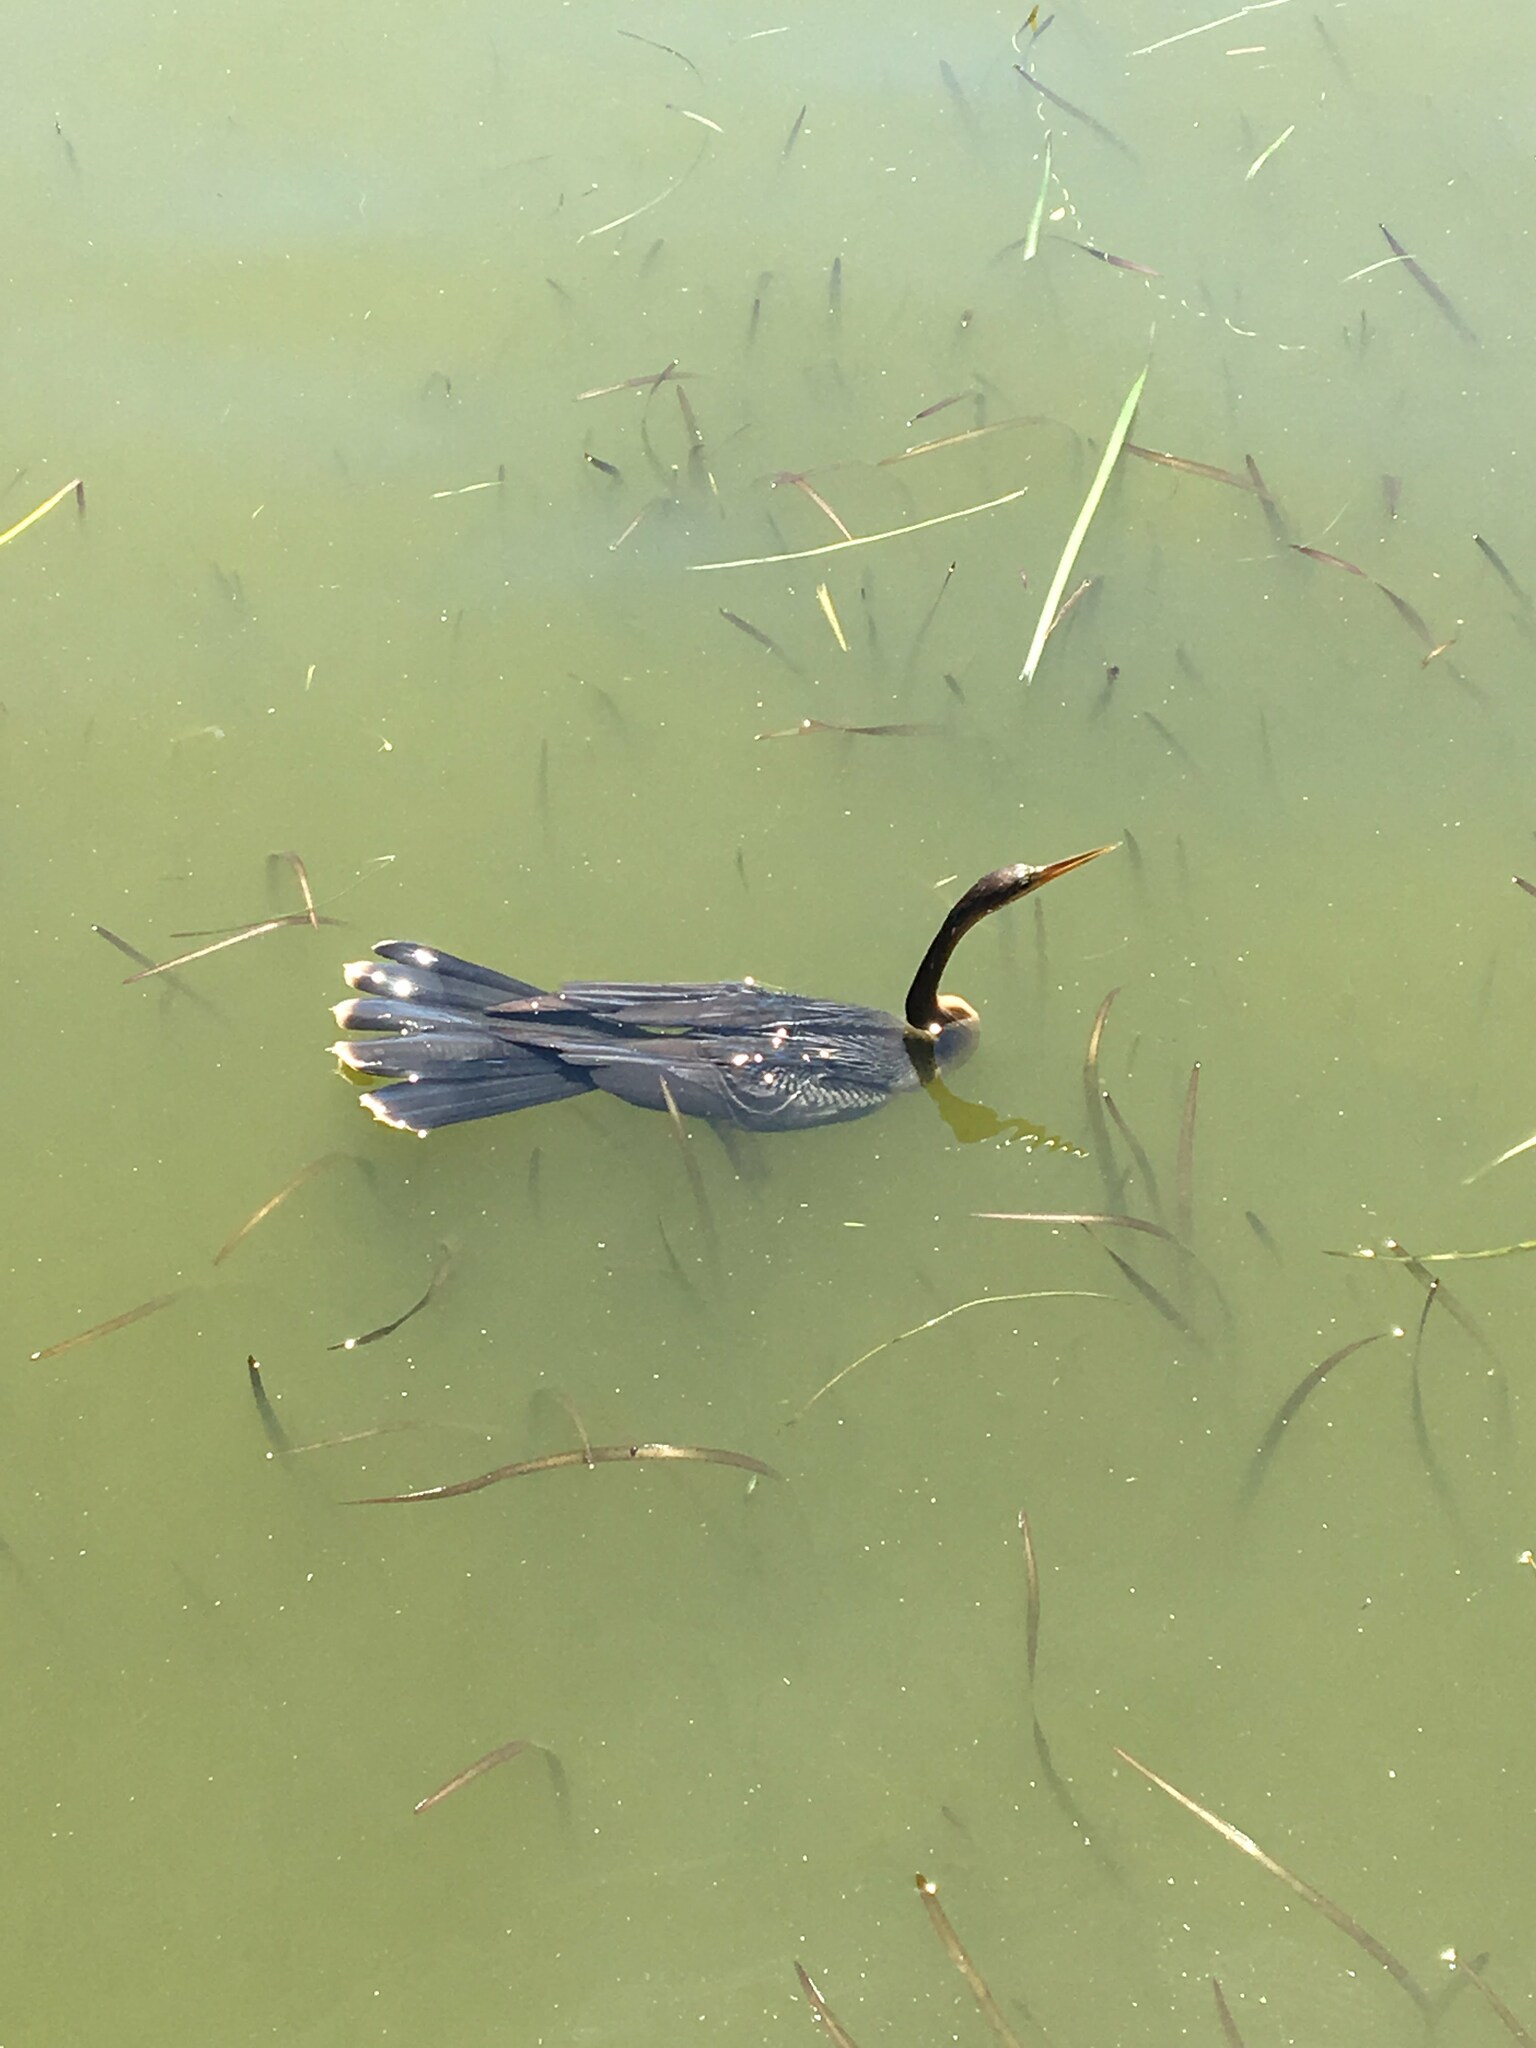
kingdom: Animalia
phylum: Chordata
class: Aves
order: Suliformes
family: Anhingidae
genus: Anhinga
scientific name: Anhinga anhinga
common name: Anhinga
